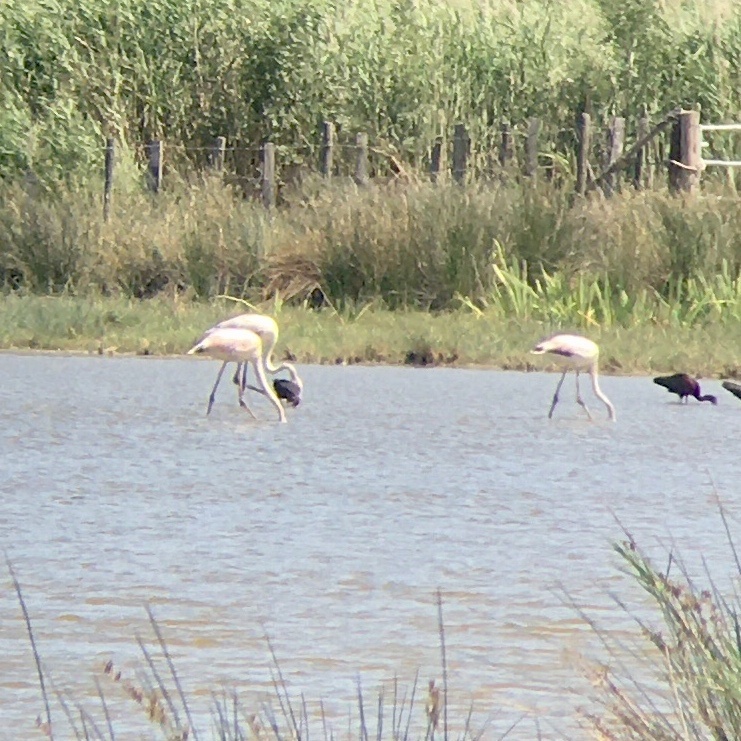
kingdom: Animalia
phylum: Chordata
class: Aves
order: Phoenicopteriformes
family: Phoenicopteridae
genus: Phoenicopterus
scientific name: Phoenicopterus roseus
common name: Greater flamingo
